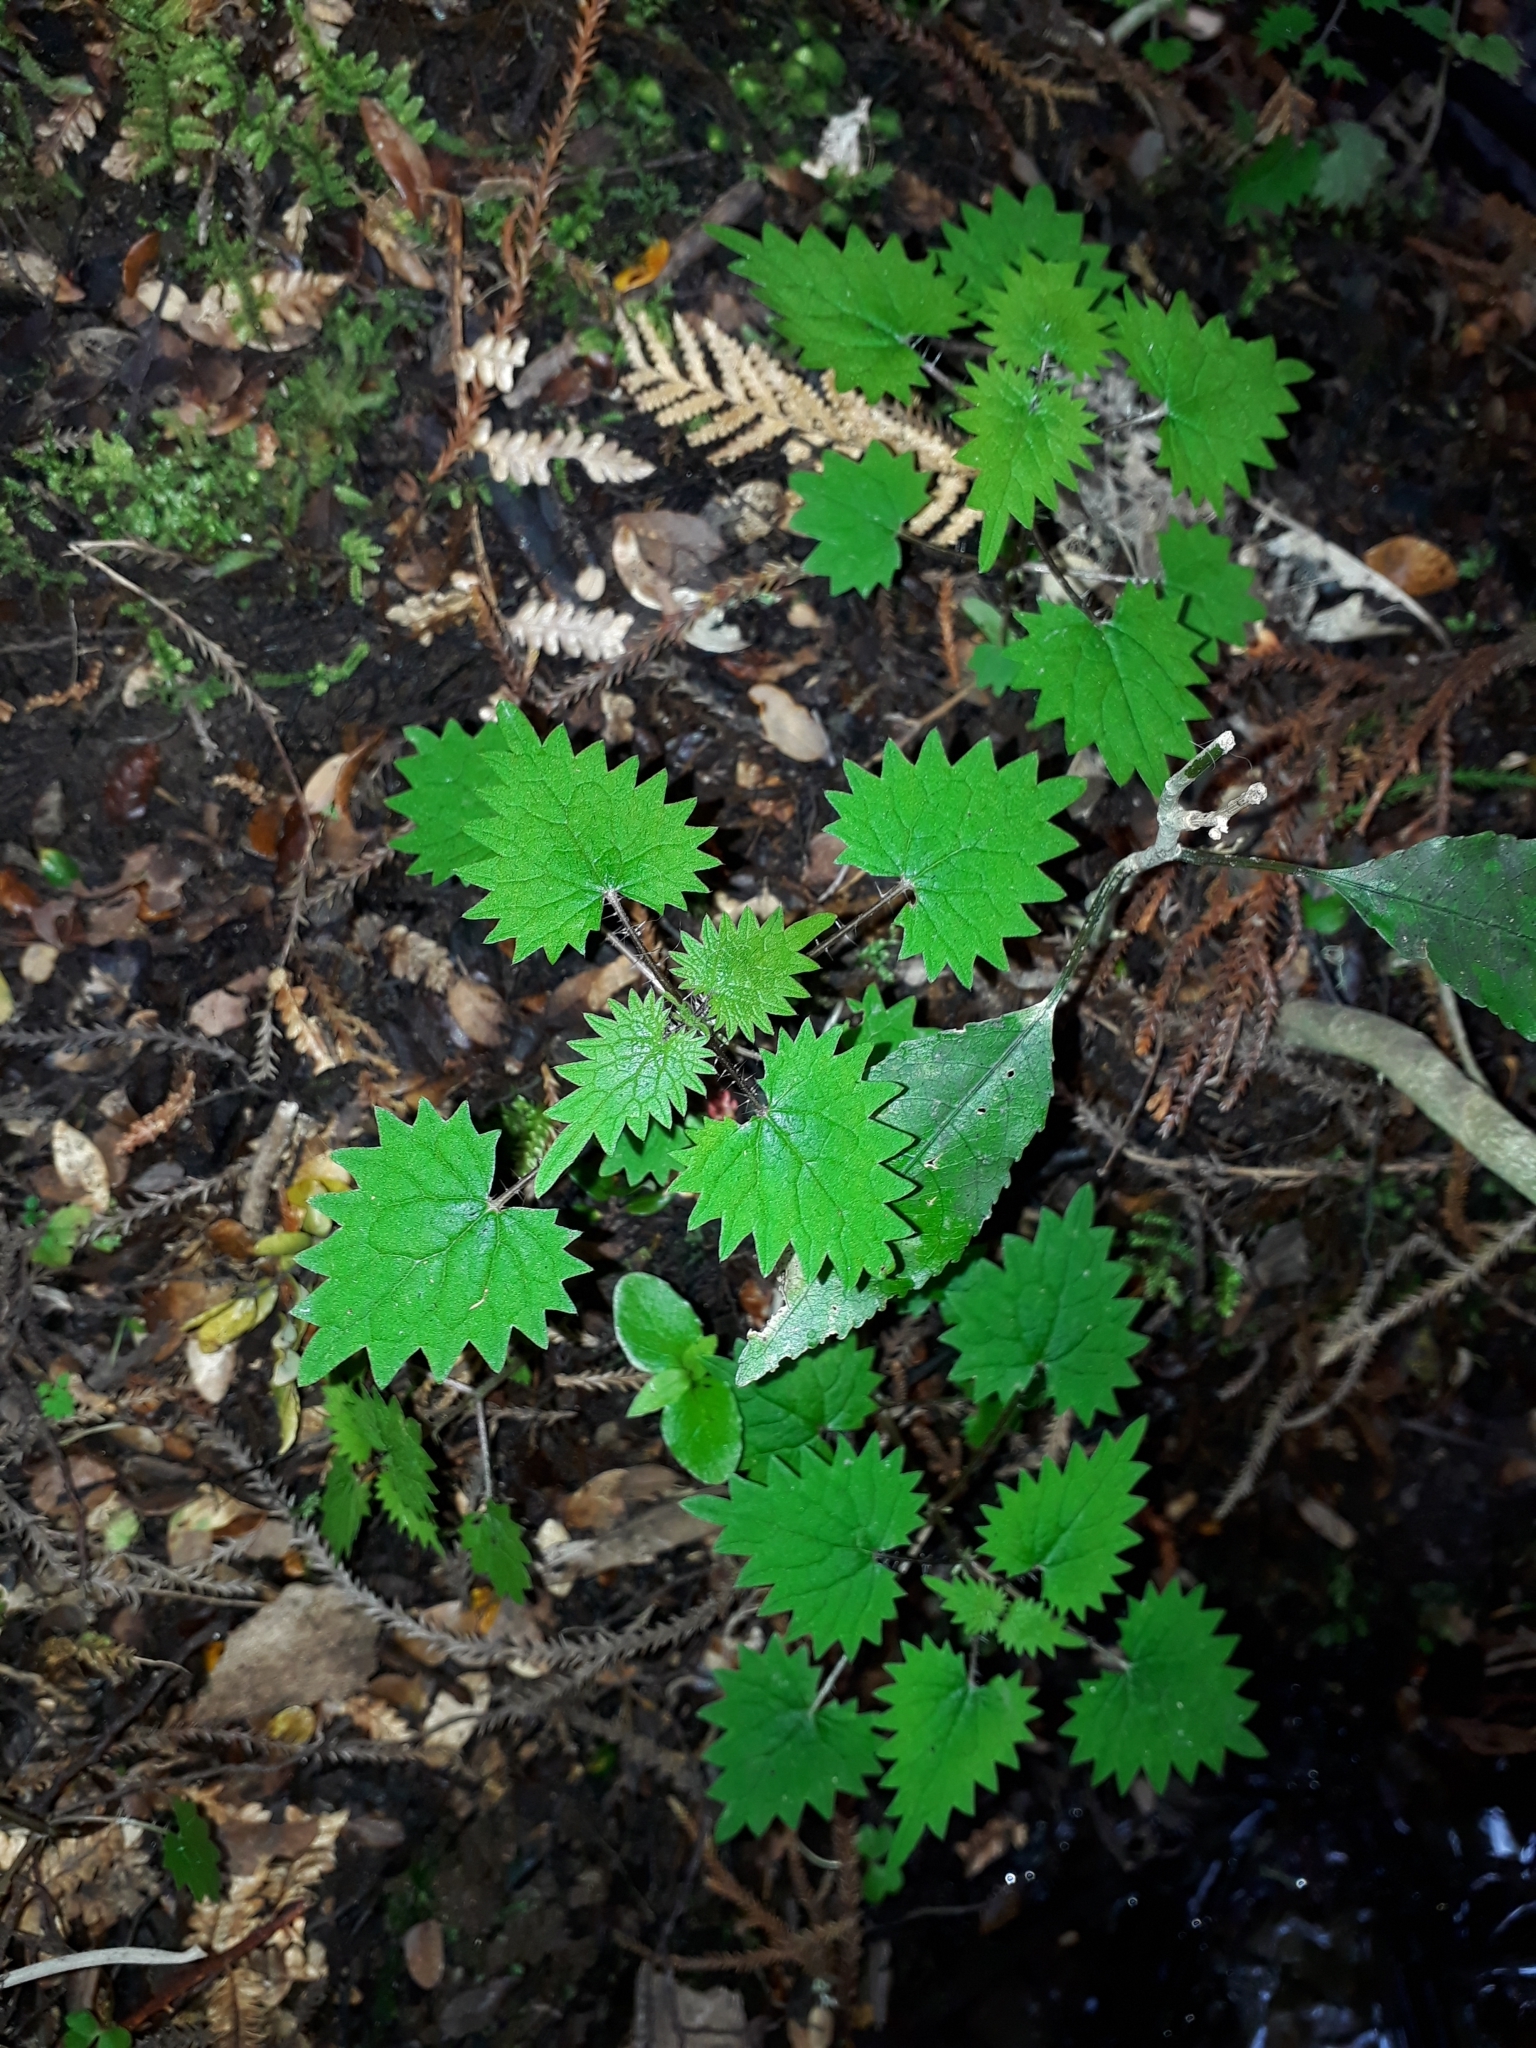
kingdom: Plantae
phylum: Tracheophyta
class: Magnoliopsida
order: Rosales
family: Urticaceae
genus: Urtica
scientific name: Urtica sykesii
